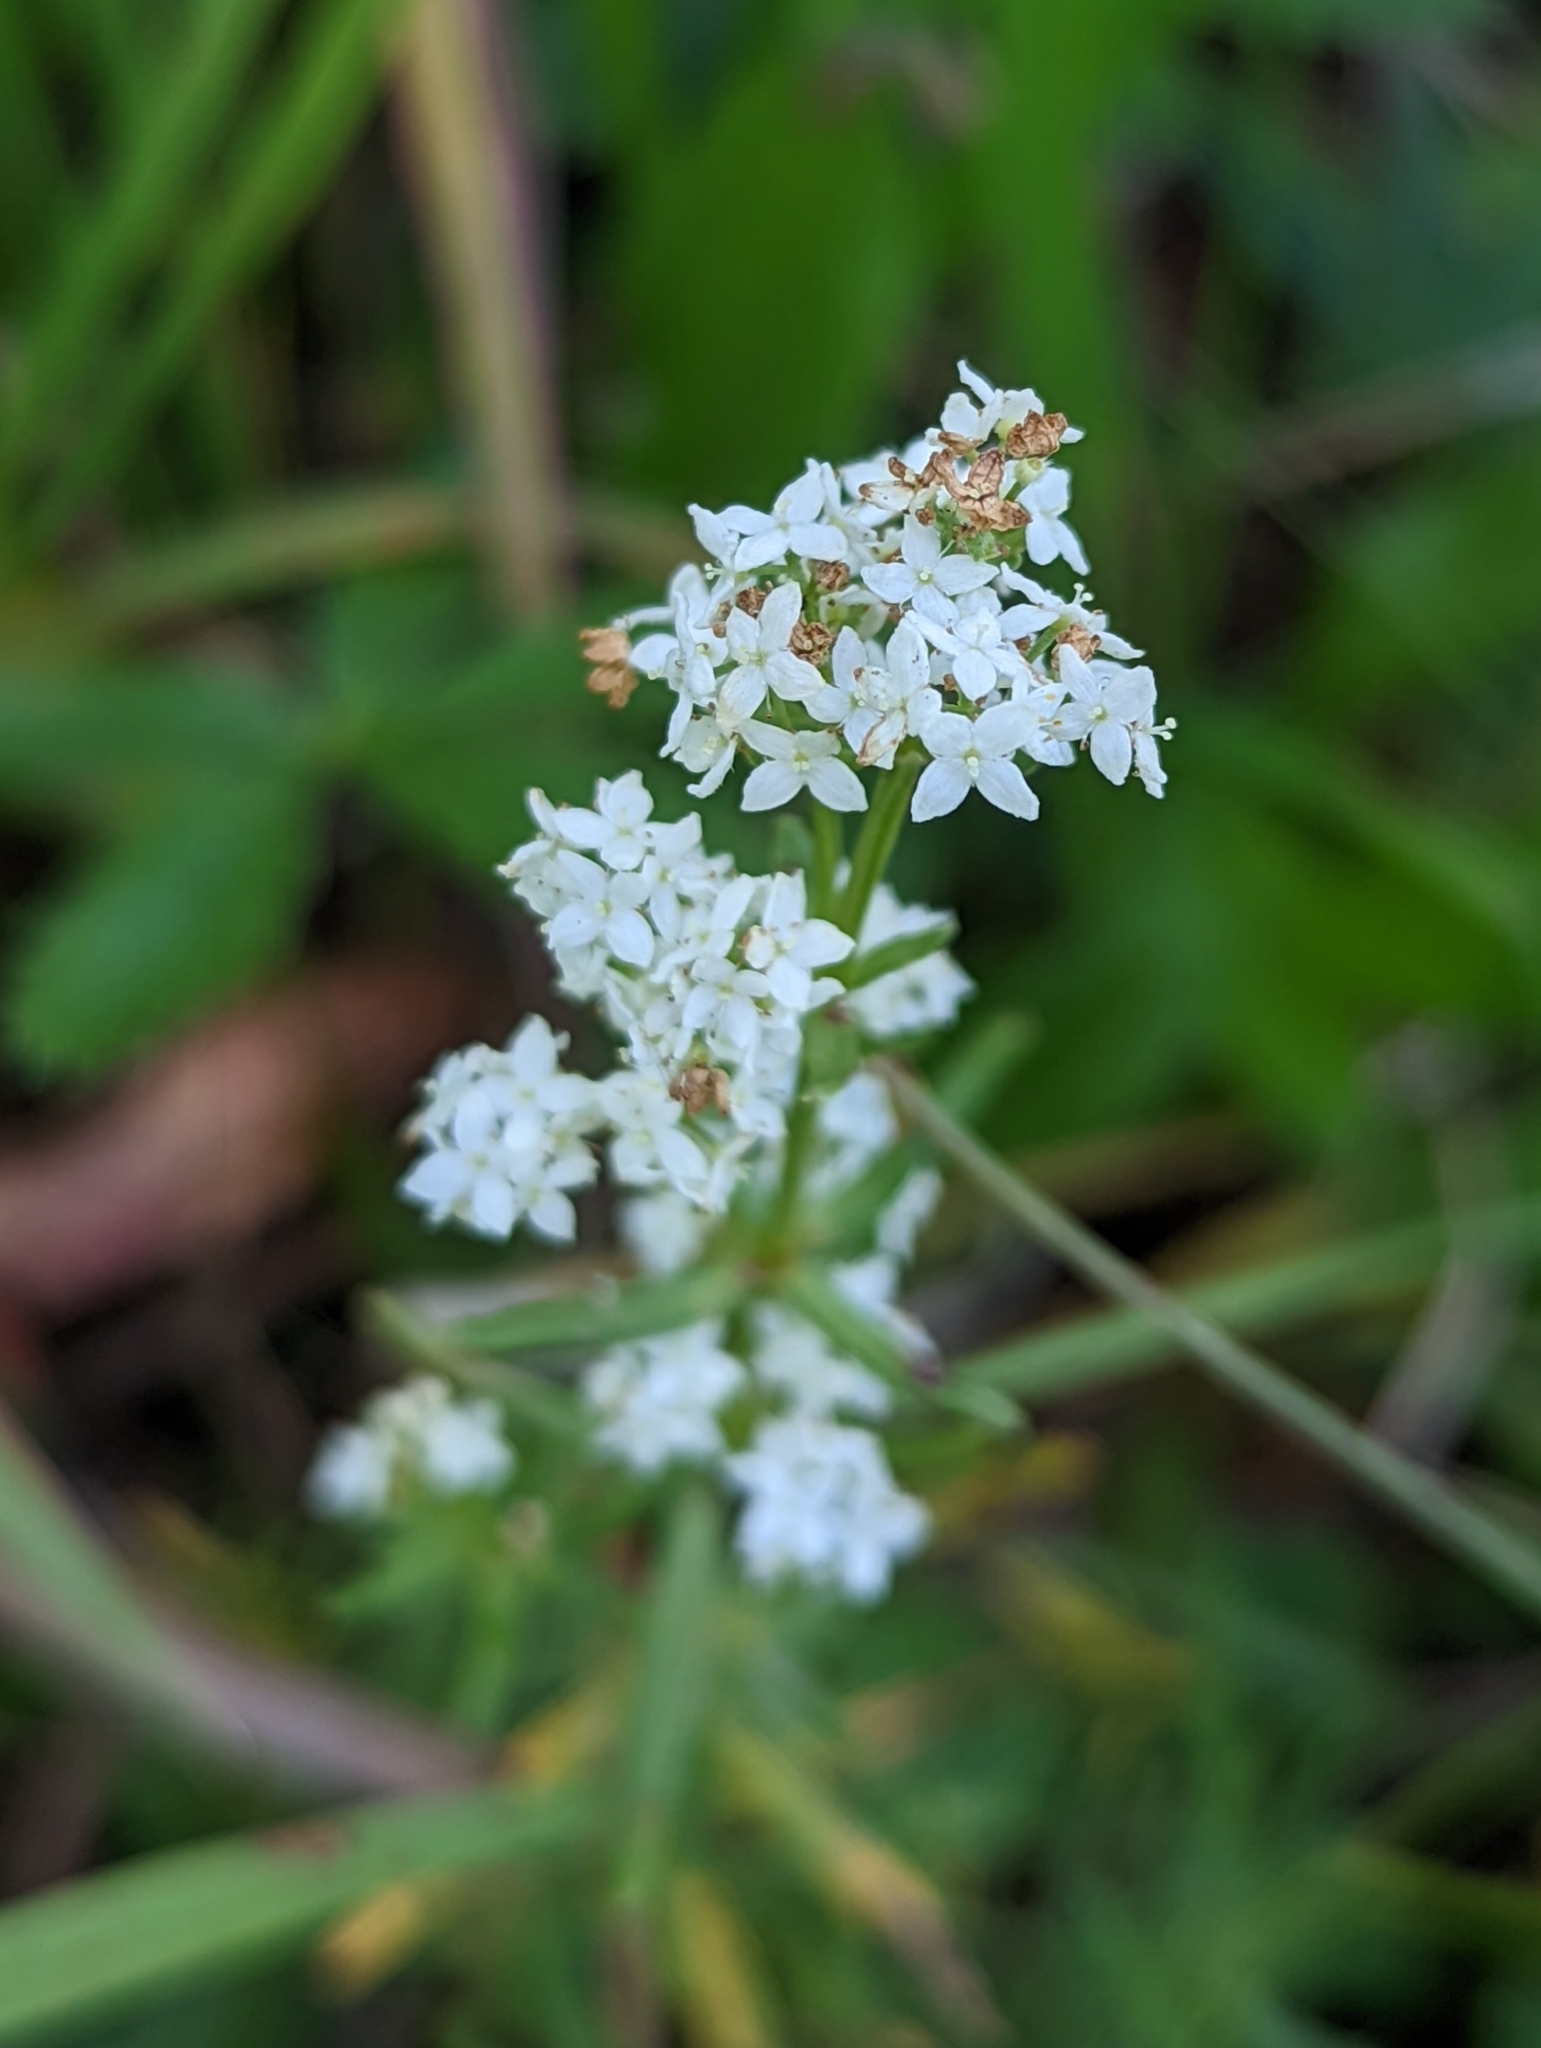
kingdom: Plantae
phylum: Tracheophyta
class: Magnoliopsida
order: Gentianales
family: Rubiaceae
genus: Galium
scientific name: Galium boreale
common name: Northern bedstraw
